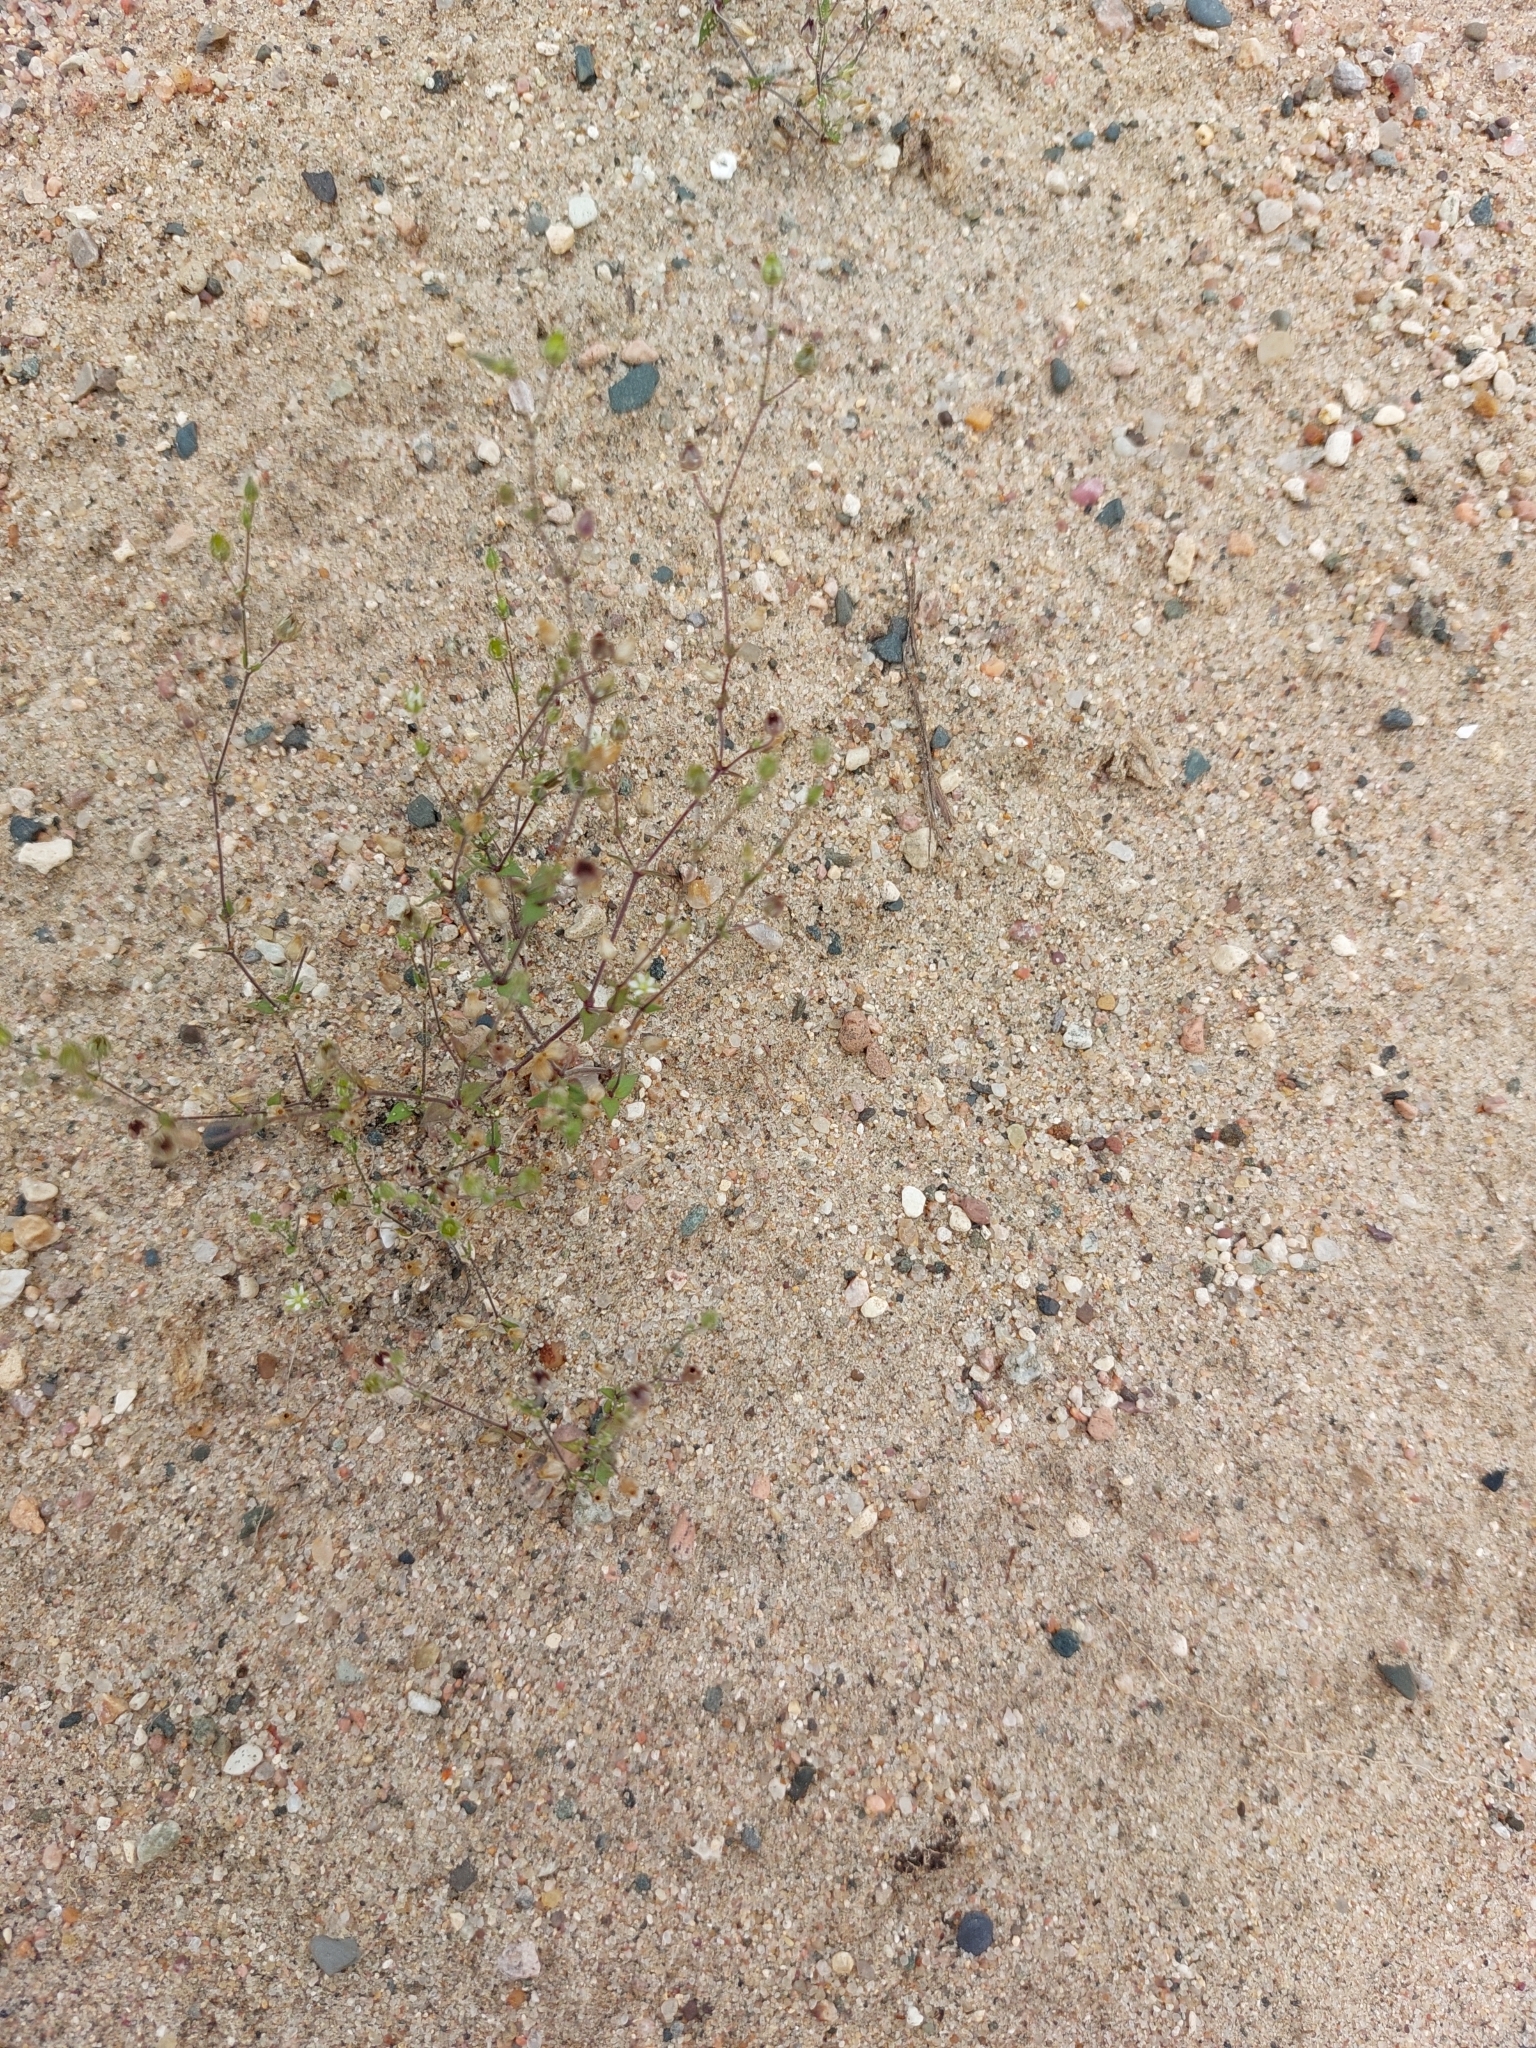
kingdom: Plantae
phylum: Tracheophyta
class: Magnoliopsida
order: Caryophyllales
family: Caryophyllaceae
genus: Arenaria
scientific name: Arenaria serpyllifolia
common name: Thyme-leaved sandwort
